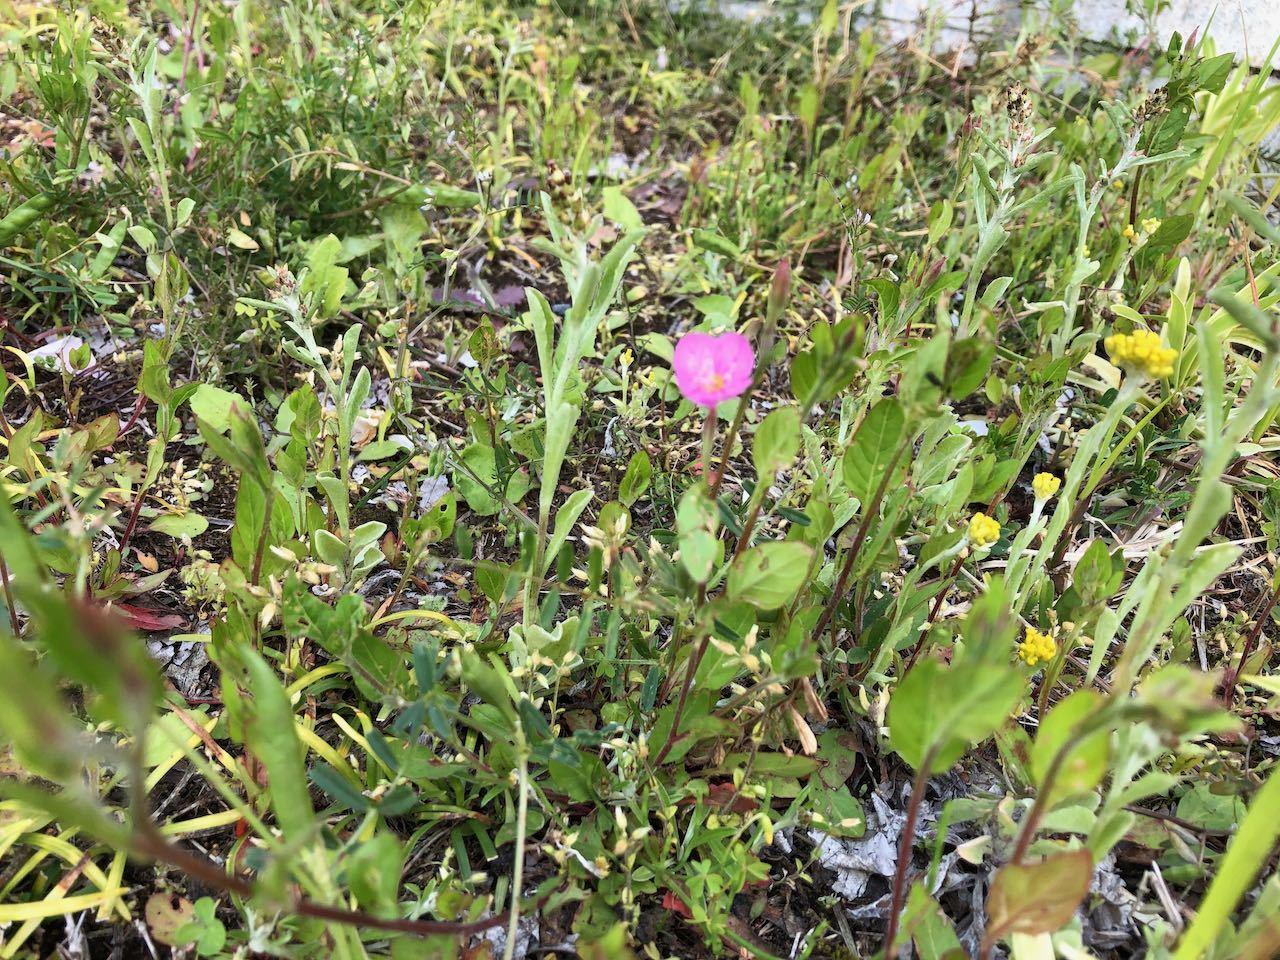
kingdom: Plantae
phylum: Tracheophyta
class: Magnoliopsida
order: Myrtales
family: Onagraceae
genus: Oenothera
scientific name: Oenothera rosea
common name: Rosy evening-primrose
